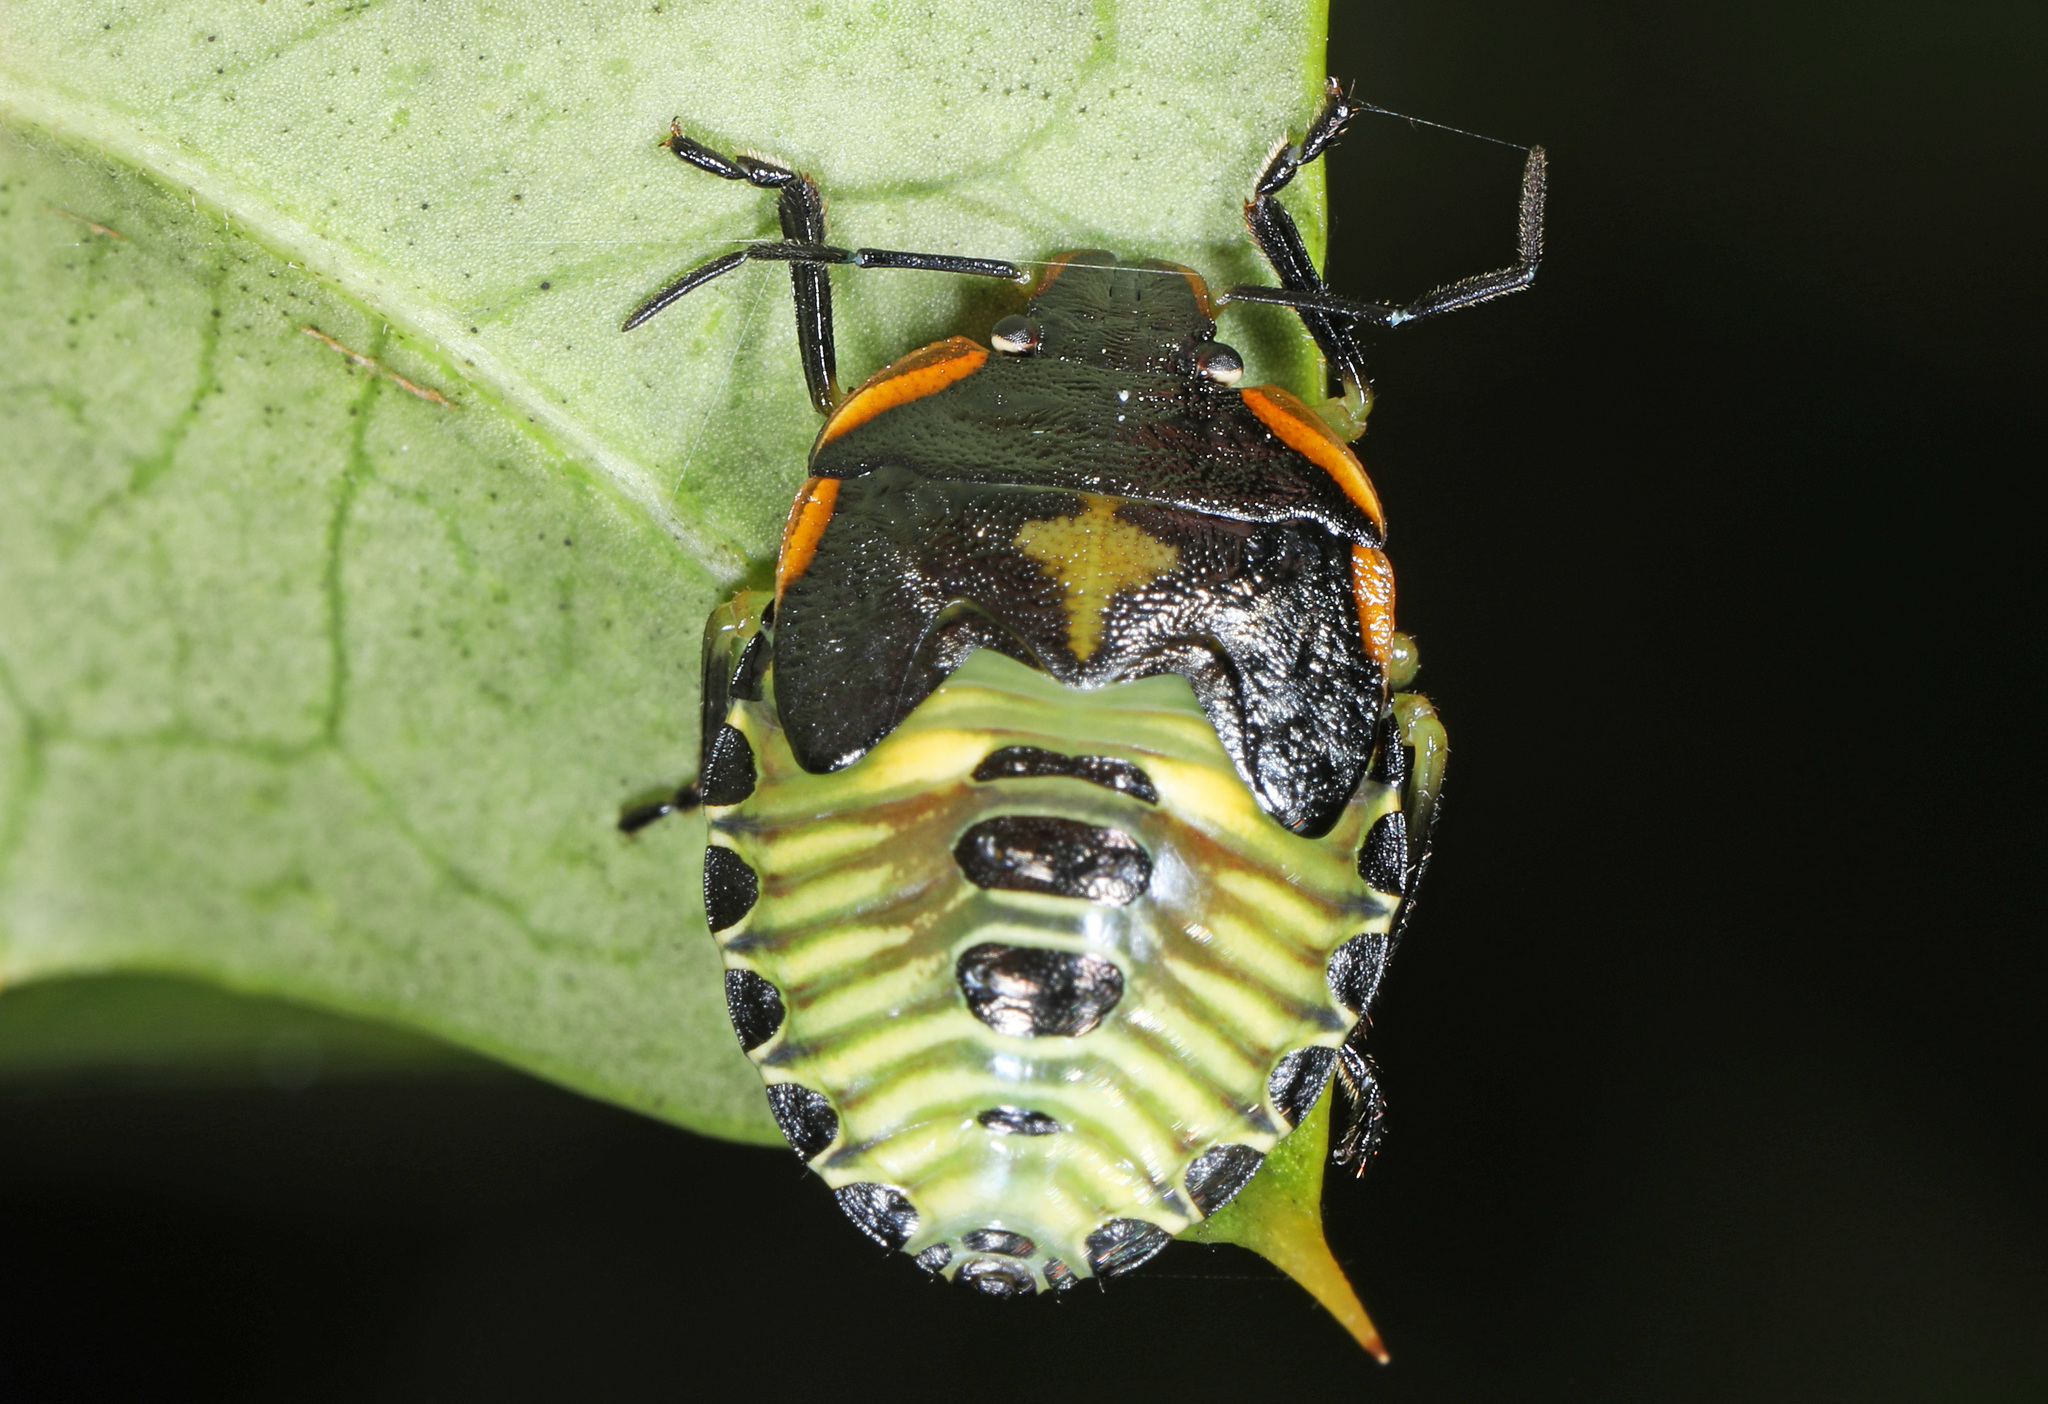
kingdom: Animalia
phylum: Arthropoda
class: Insecta
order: Hemiptera
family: Pentatomidae
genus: Chinavia
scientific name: Chinavia hilaris
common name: Green stink bug
